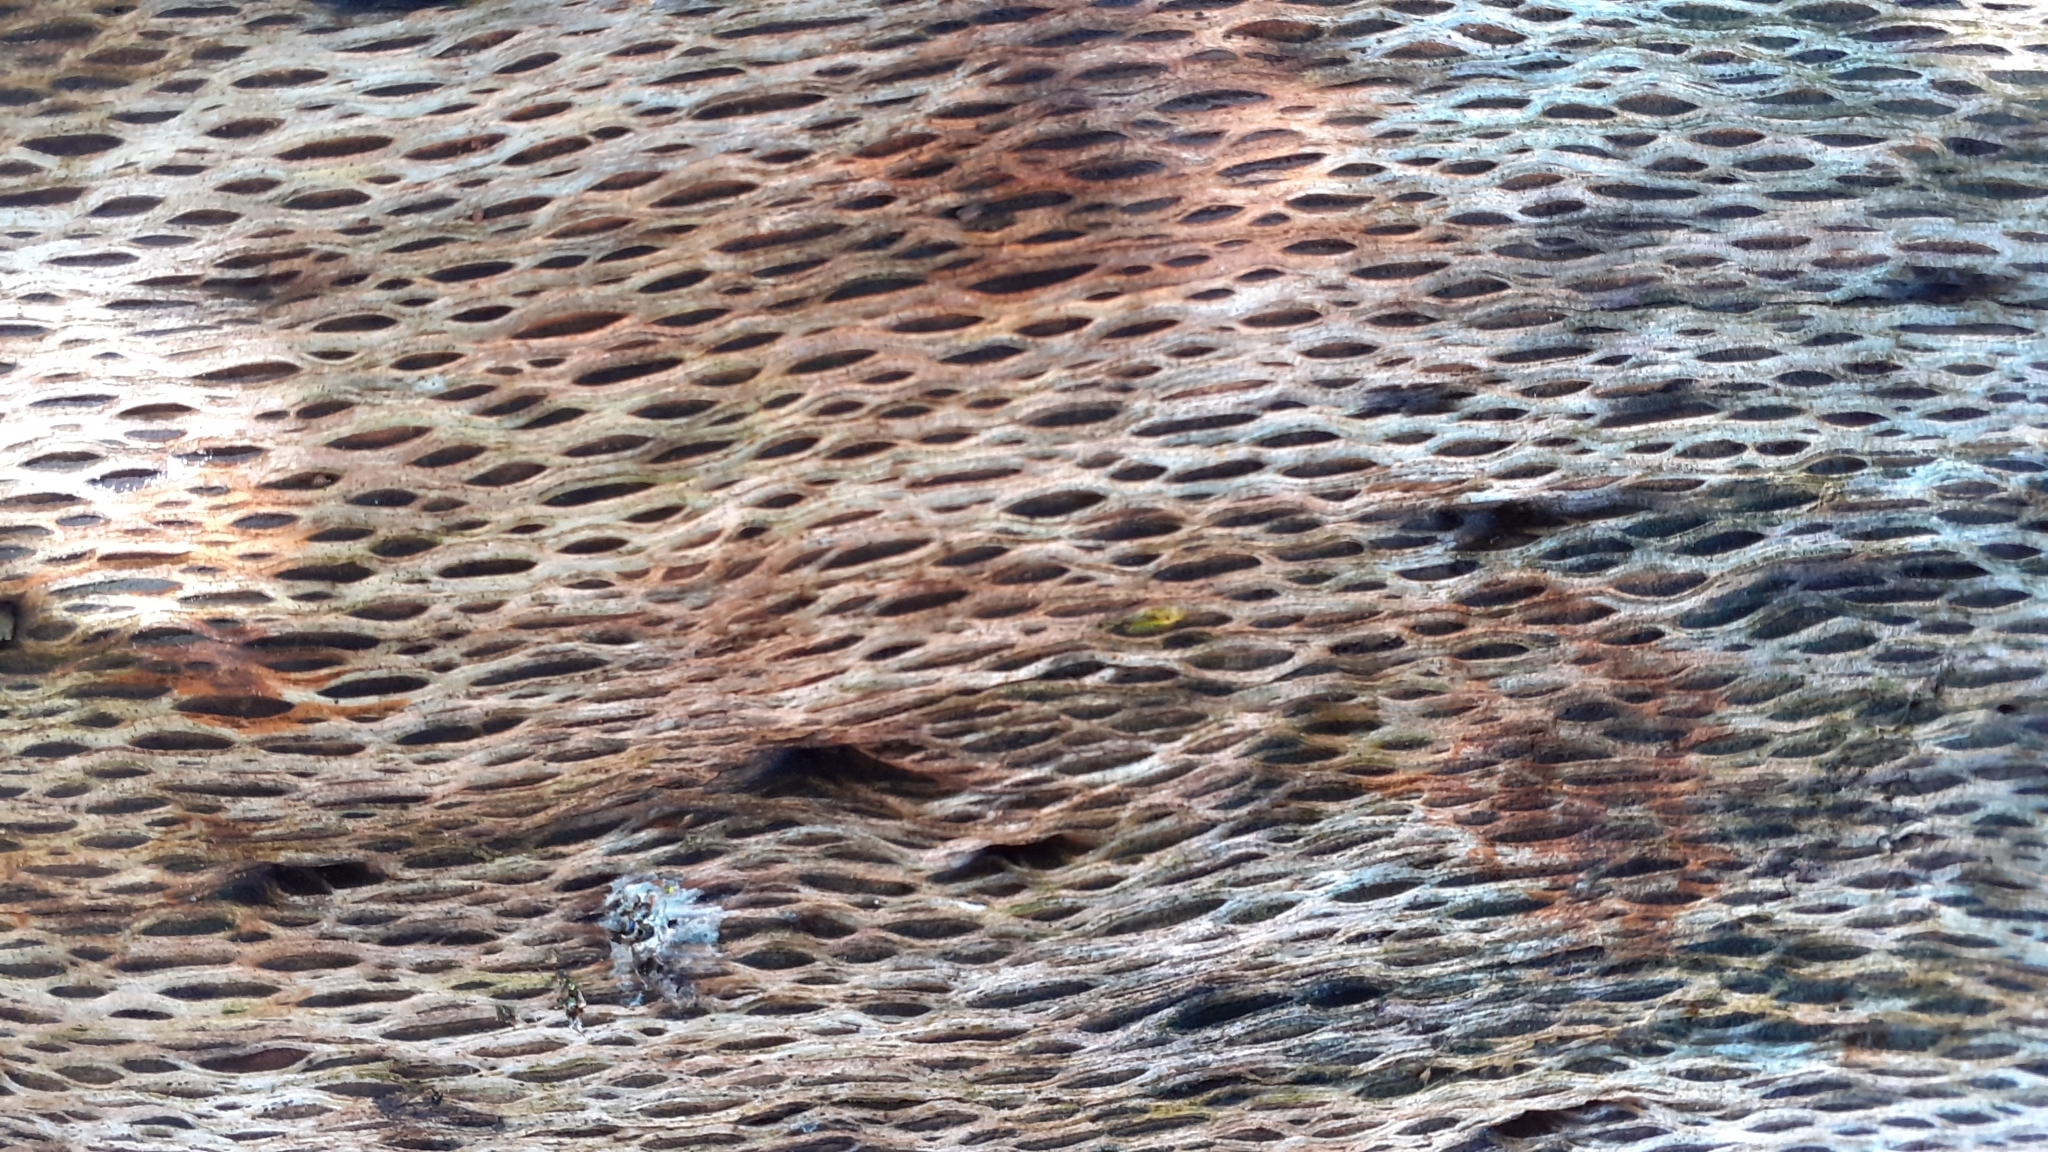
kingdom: Plantae
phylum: Tracheophyta
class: Magnoliopsida
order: Proteales
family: Proteaceae
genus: Brabejum
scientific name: Brabejum stellatifolium
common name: Wild almond
